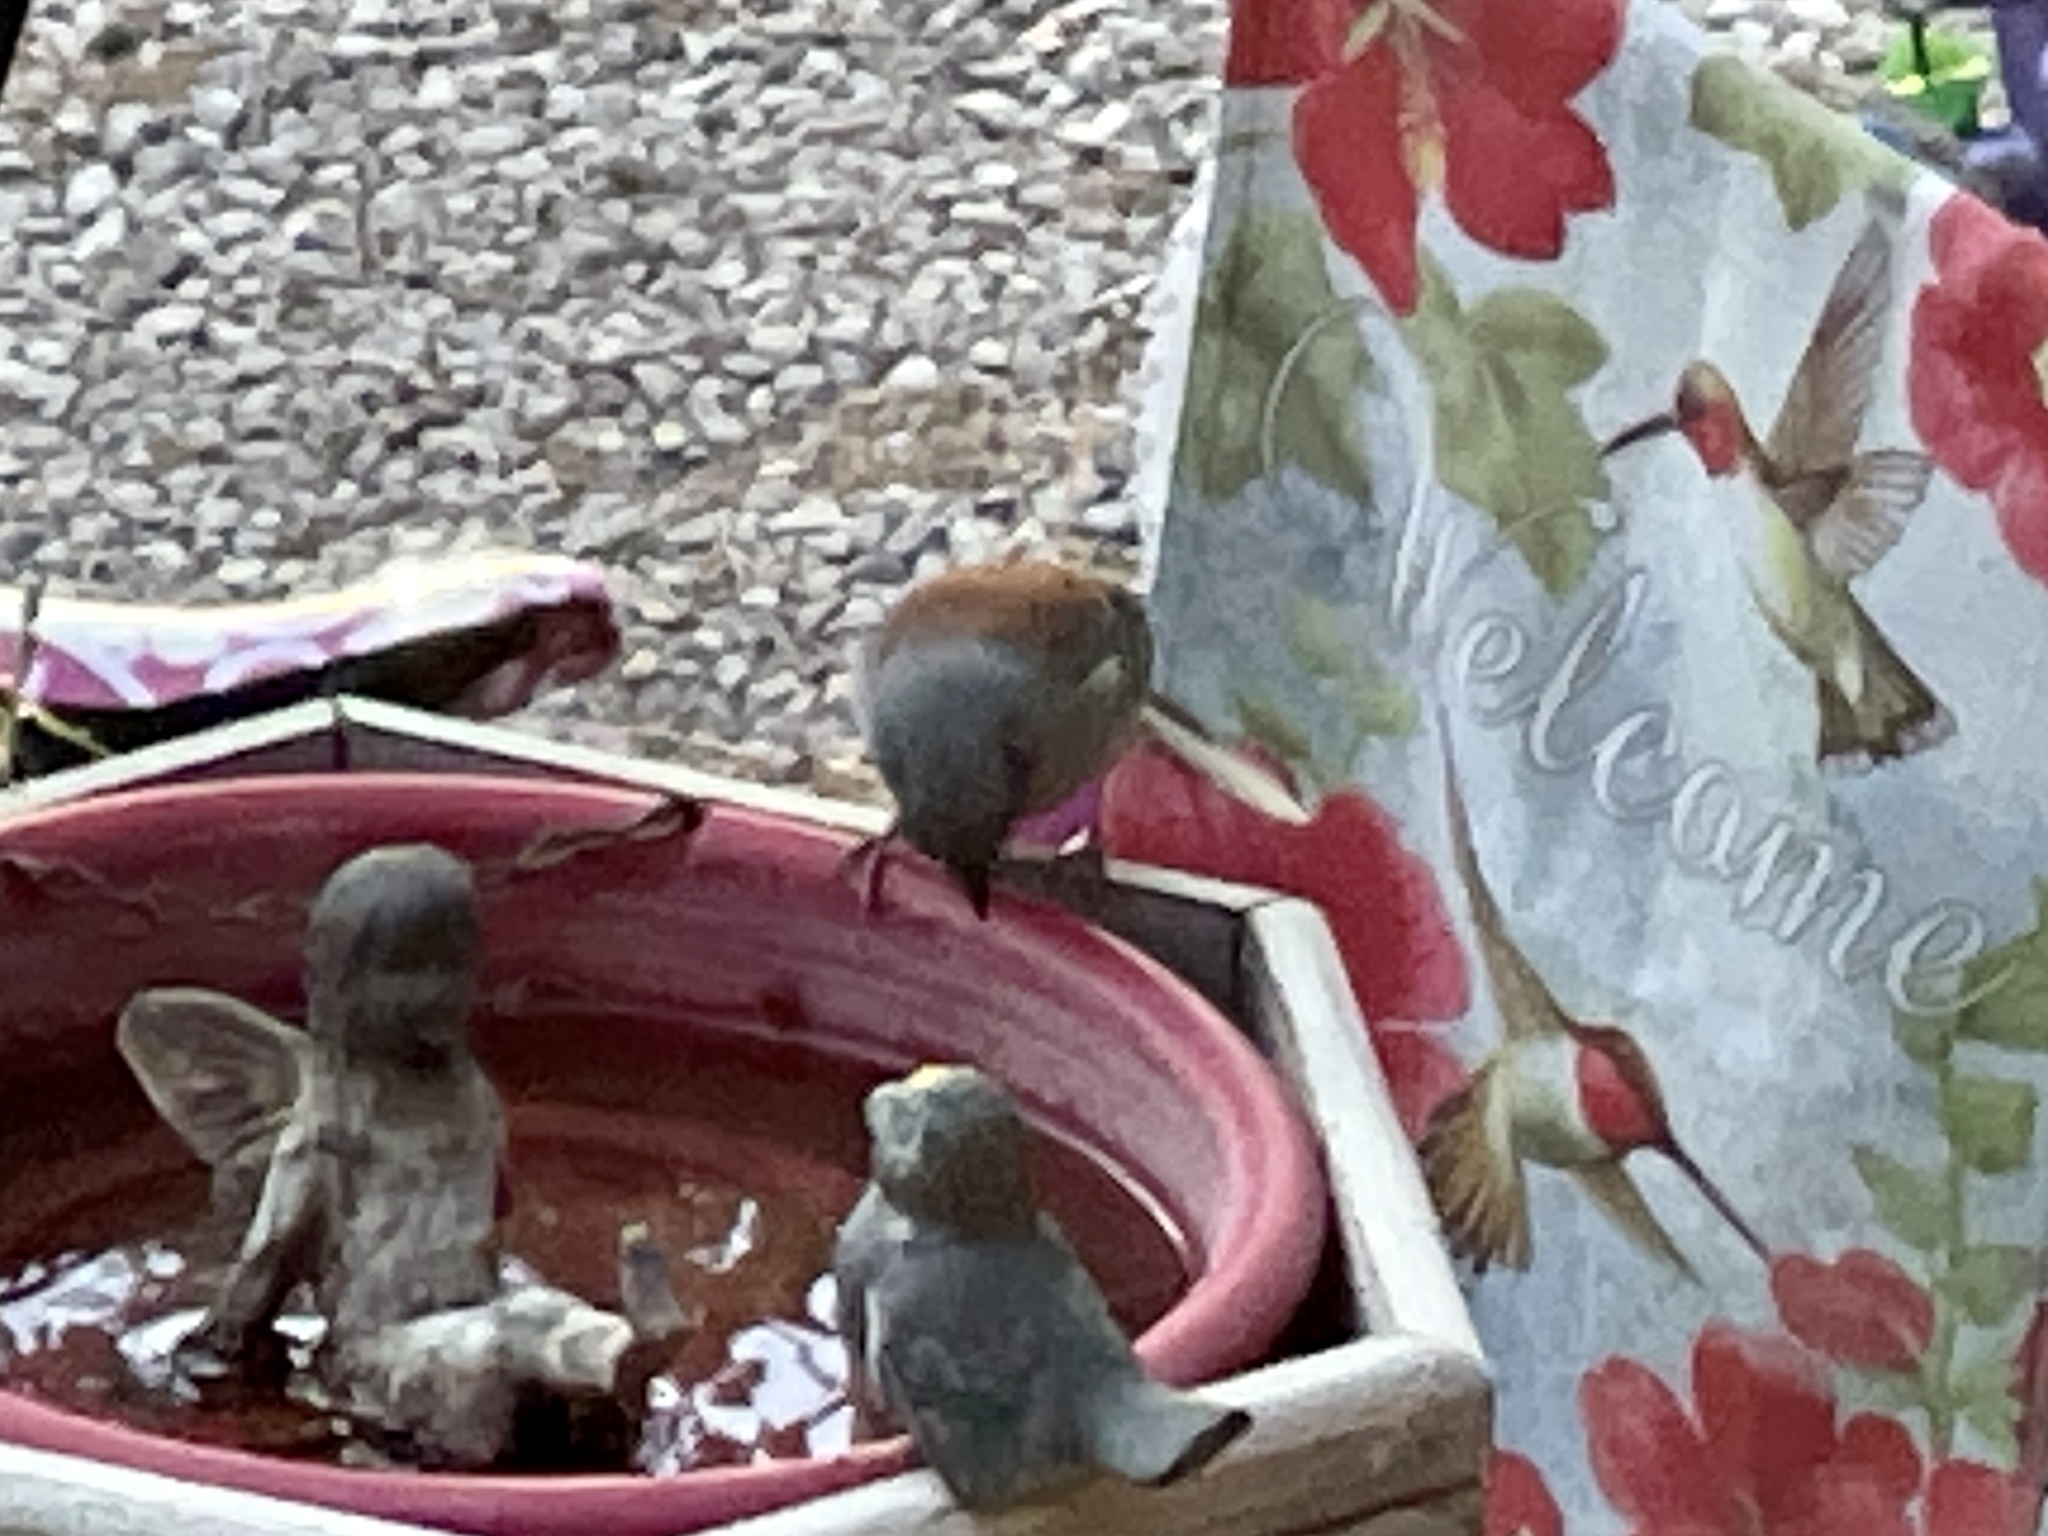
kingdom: Animalia
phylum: Chordata
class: Aves
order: Passeriformes
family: Passerellidae
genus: Junco
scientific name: Junco hyemalis
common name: Dark-eyed junco
